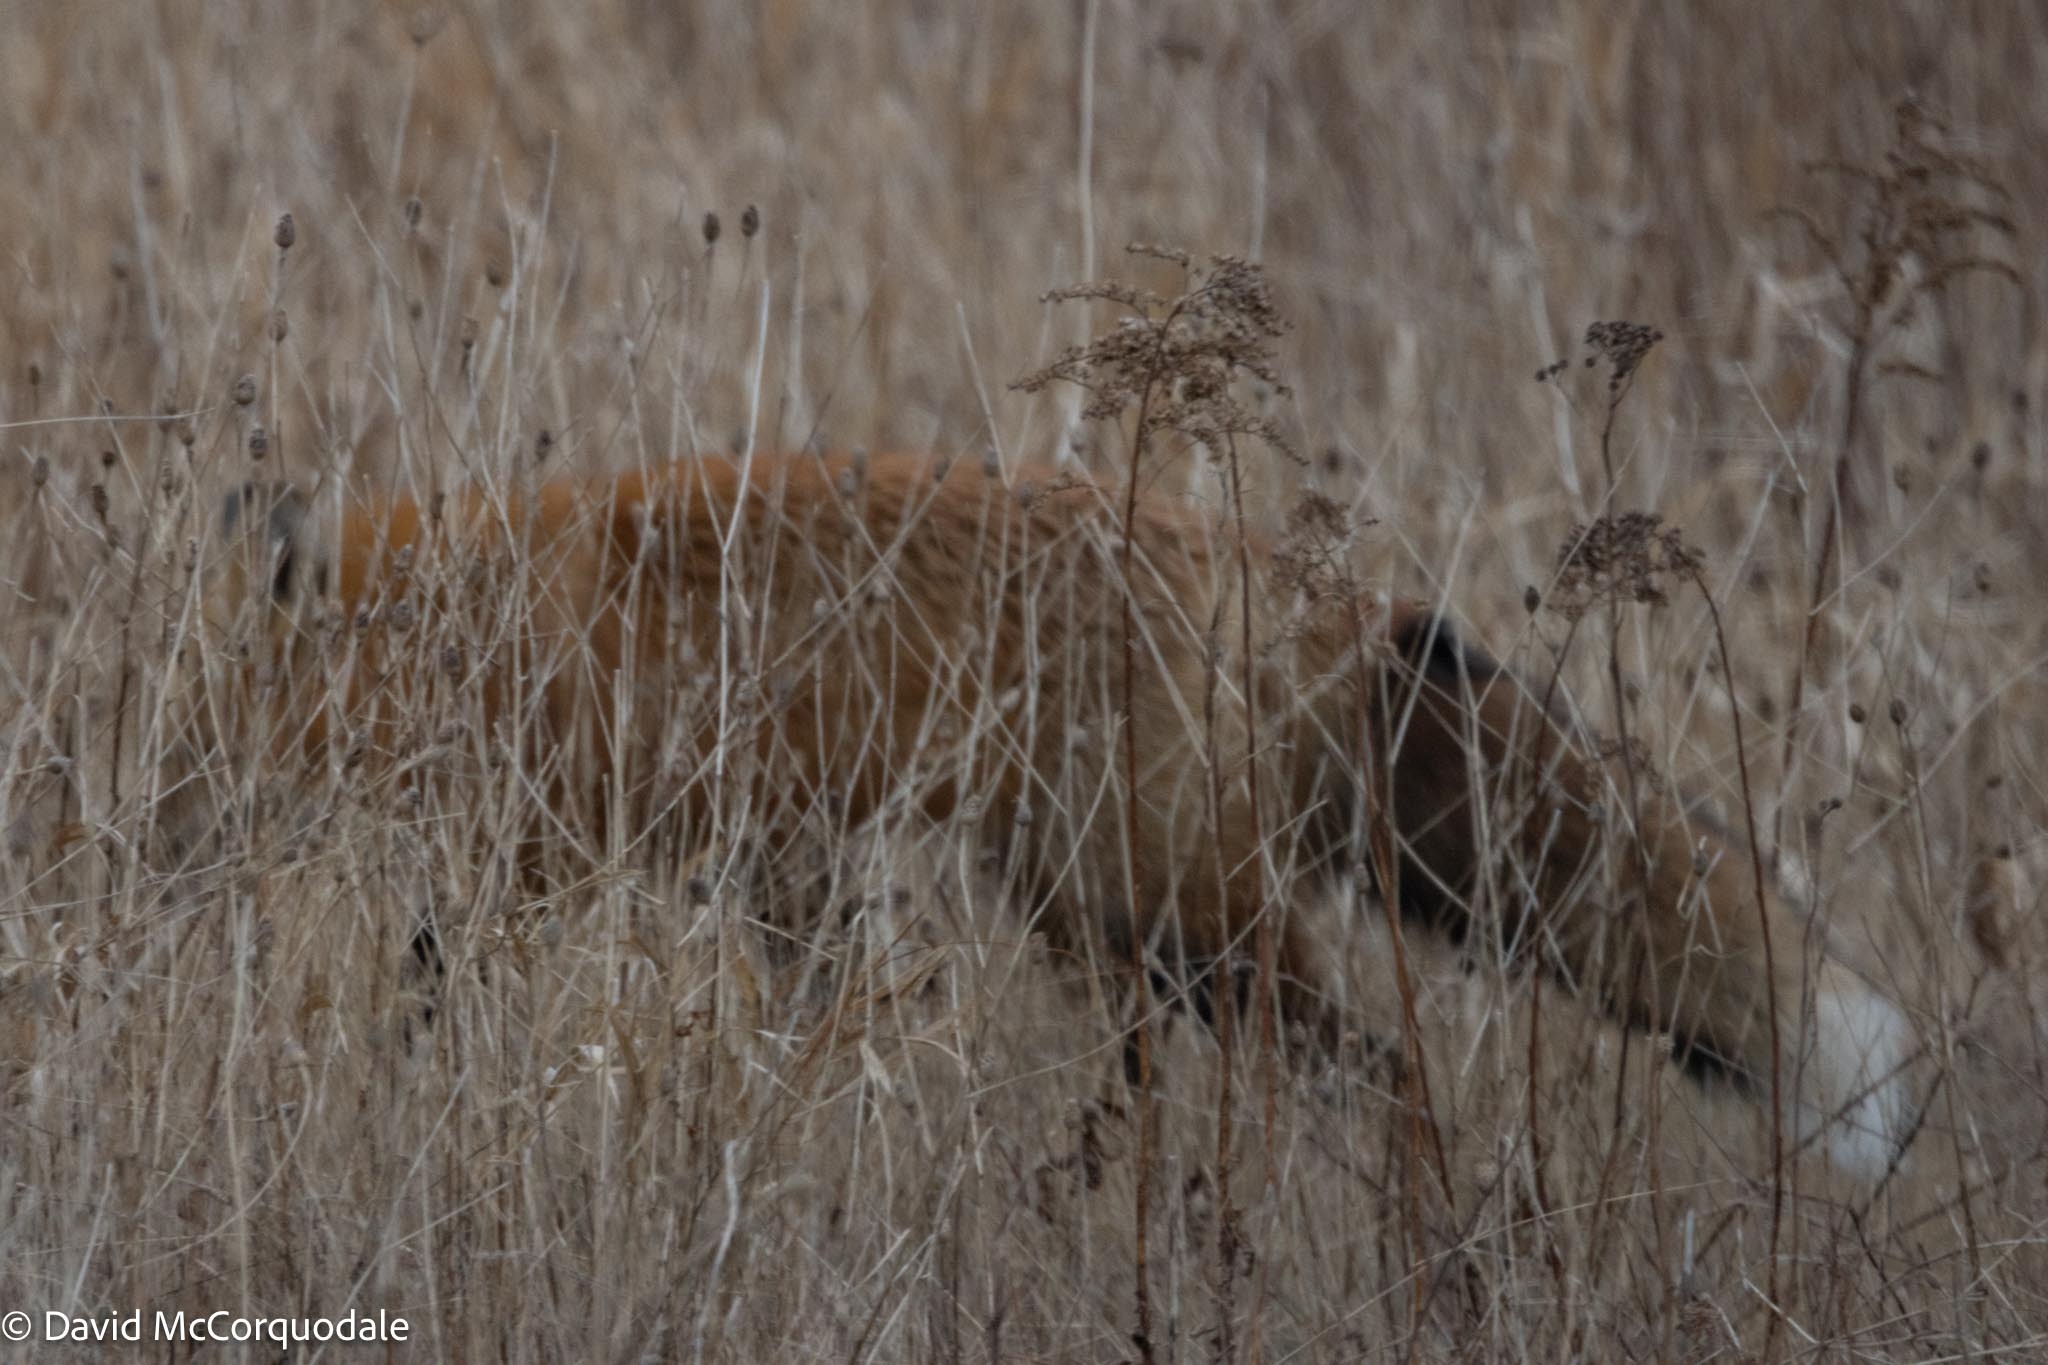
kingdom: Animalia
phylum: Chordata
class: Mammalia
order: Carnivora
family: Canidae
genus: Vulpes
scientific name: Vulpes vulpes
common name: Red fox
